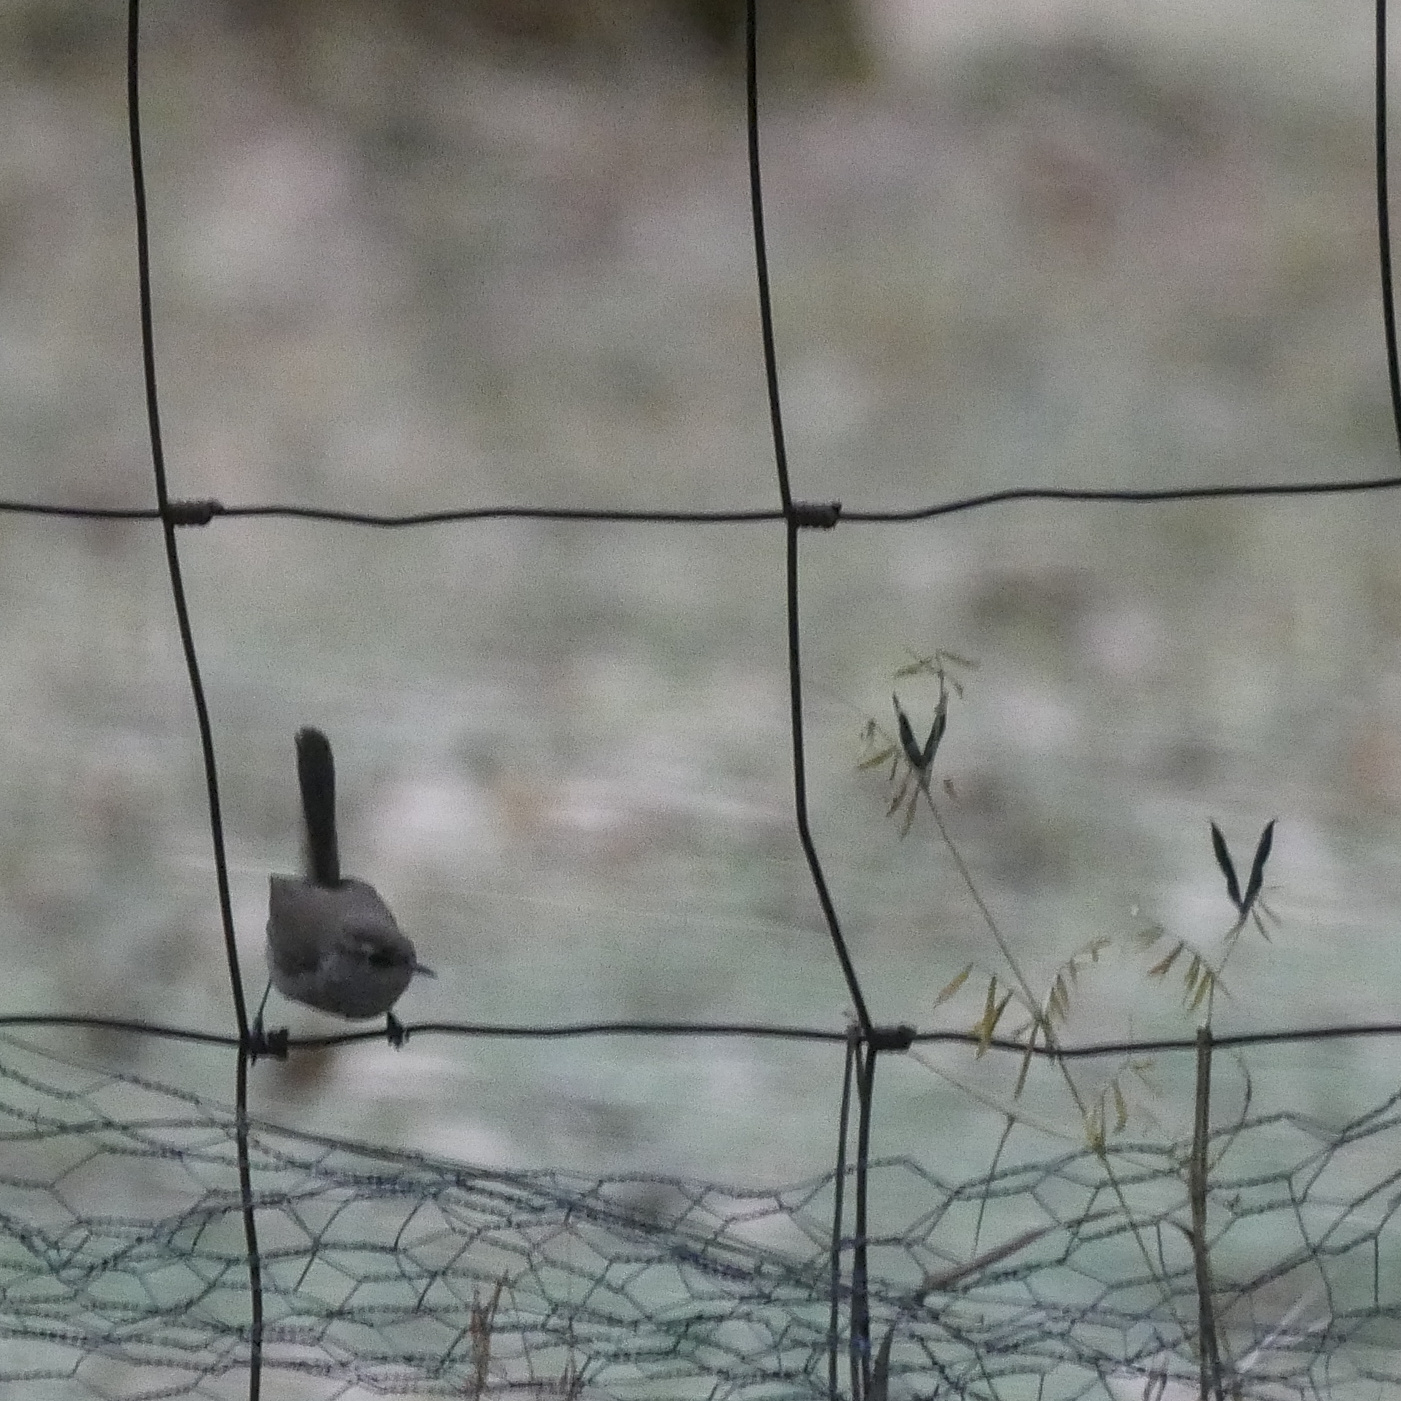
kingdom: Animalia
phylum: Chordata
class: Aves
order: Passeriformes
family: Troglodytidae
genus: Thryomanes
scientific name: Thryomanes bewickii
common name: Bewick's wren
